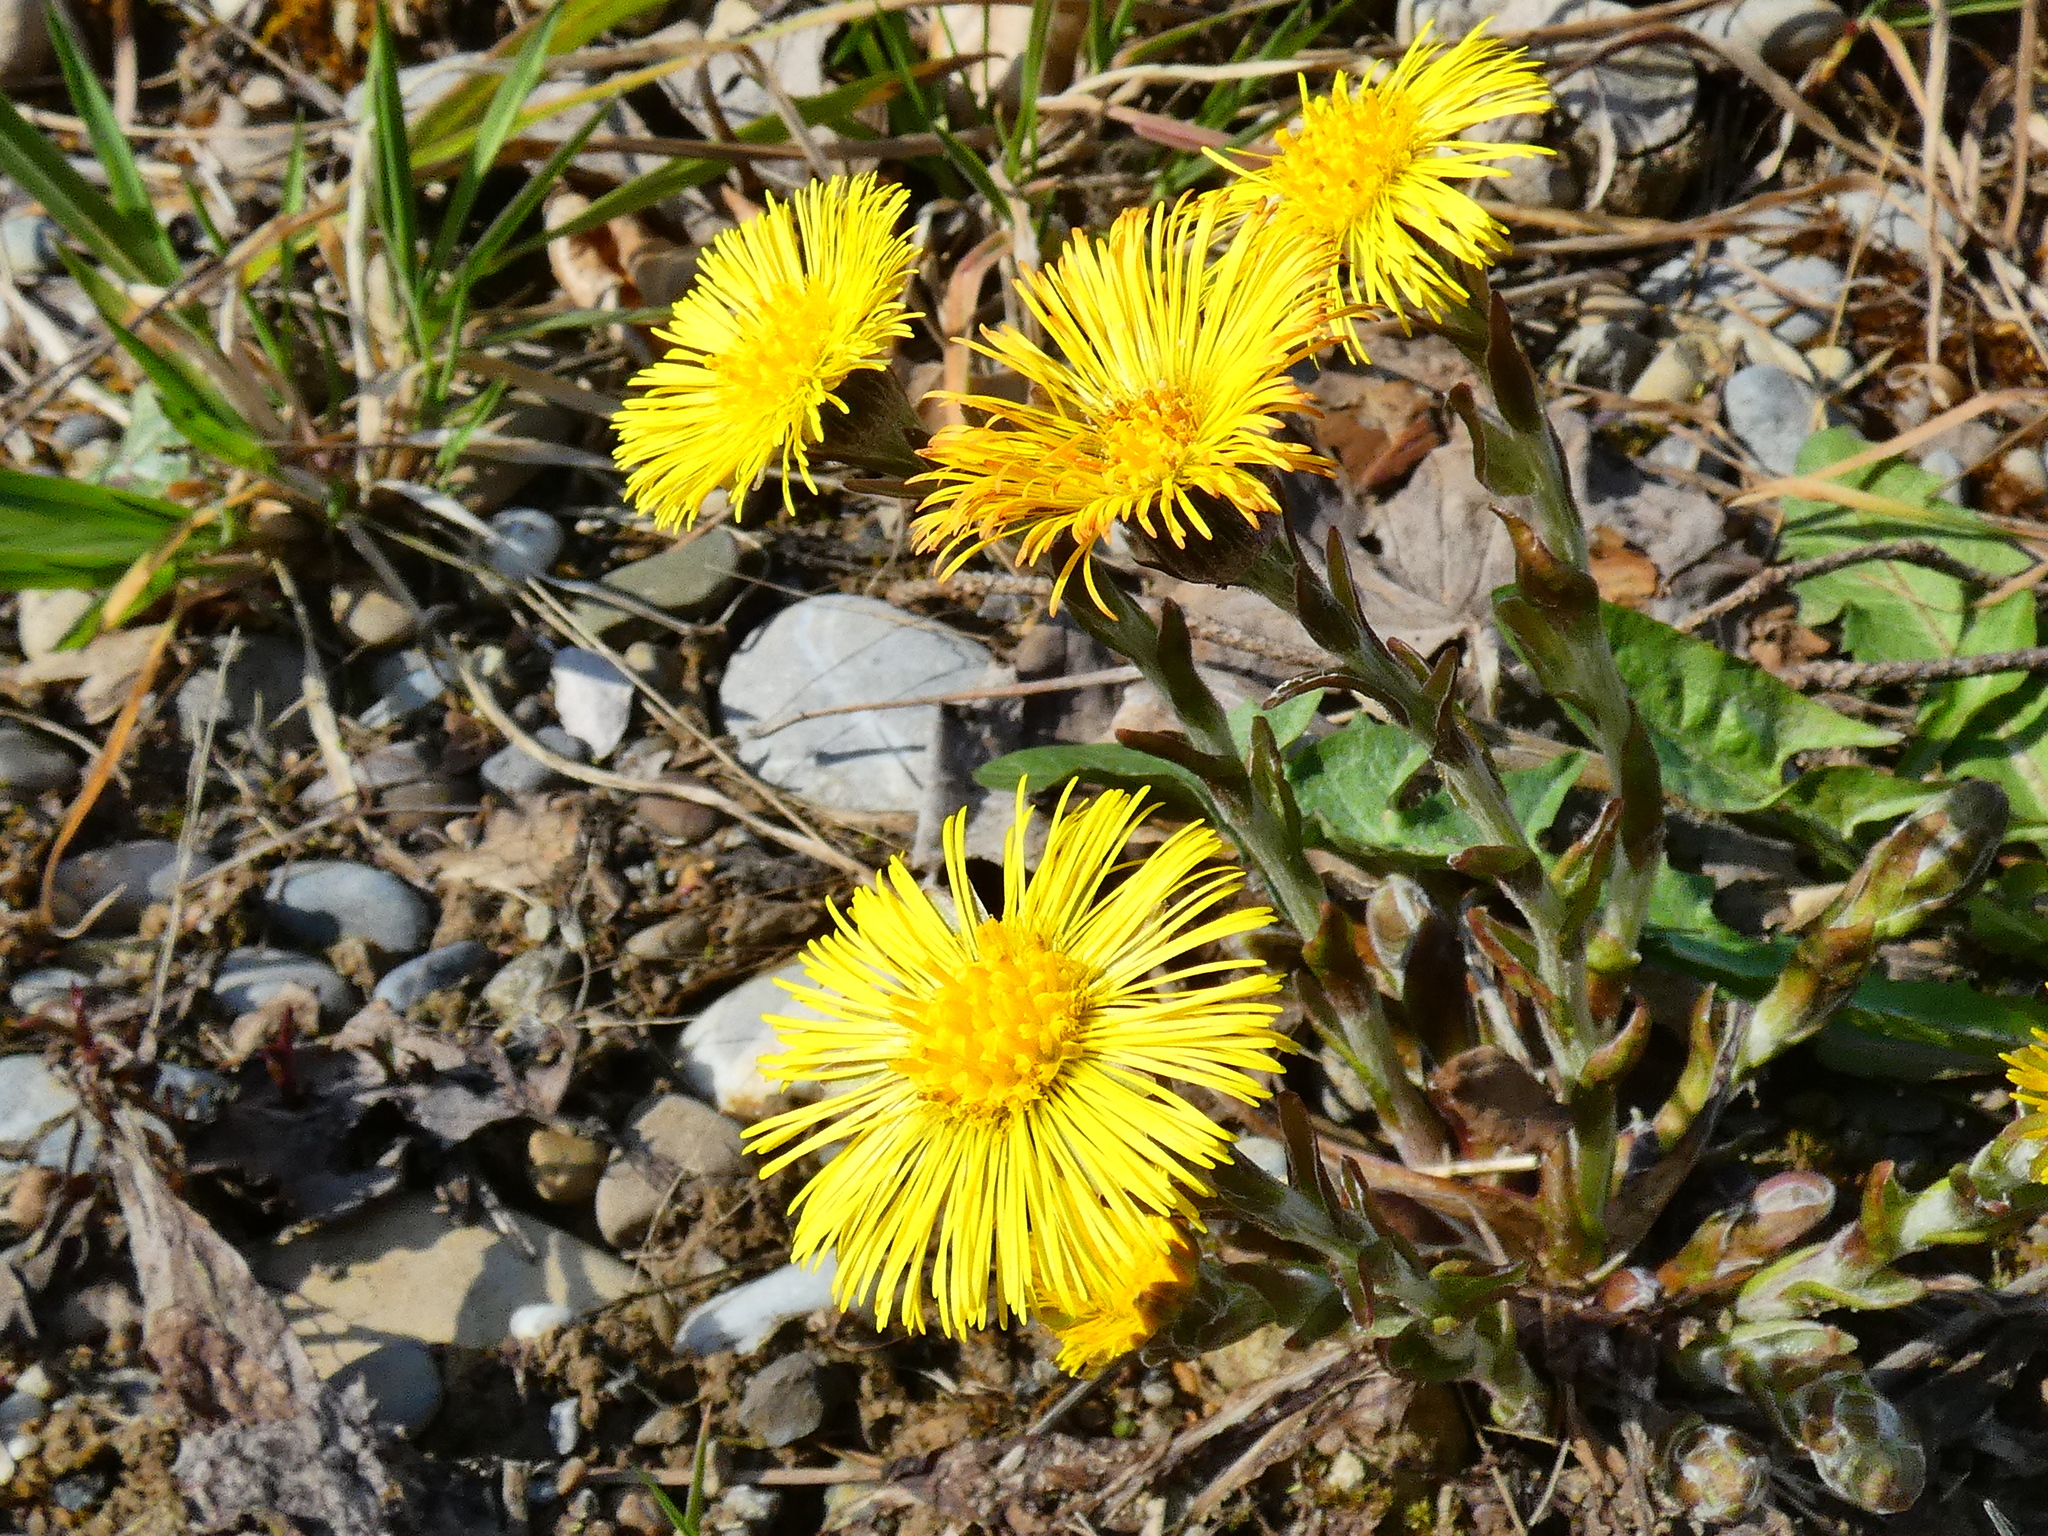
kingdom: Plantae
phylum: Tracheophyta
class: Magnoliopsida
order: Asterales
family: Asteraceae
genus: Tussilago
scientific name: Tussilago farfara
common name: Coltsfoot
